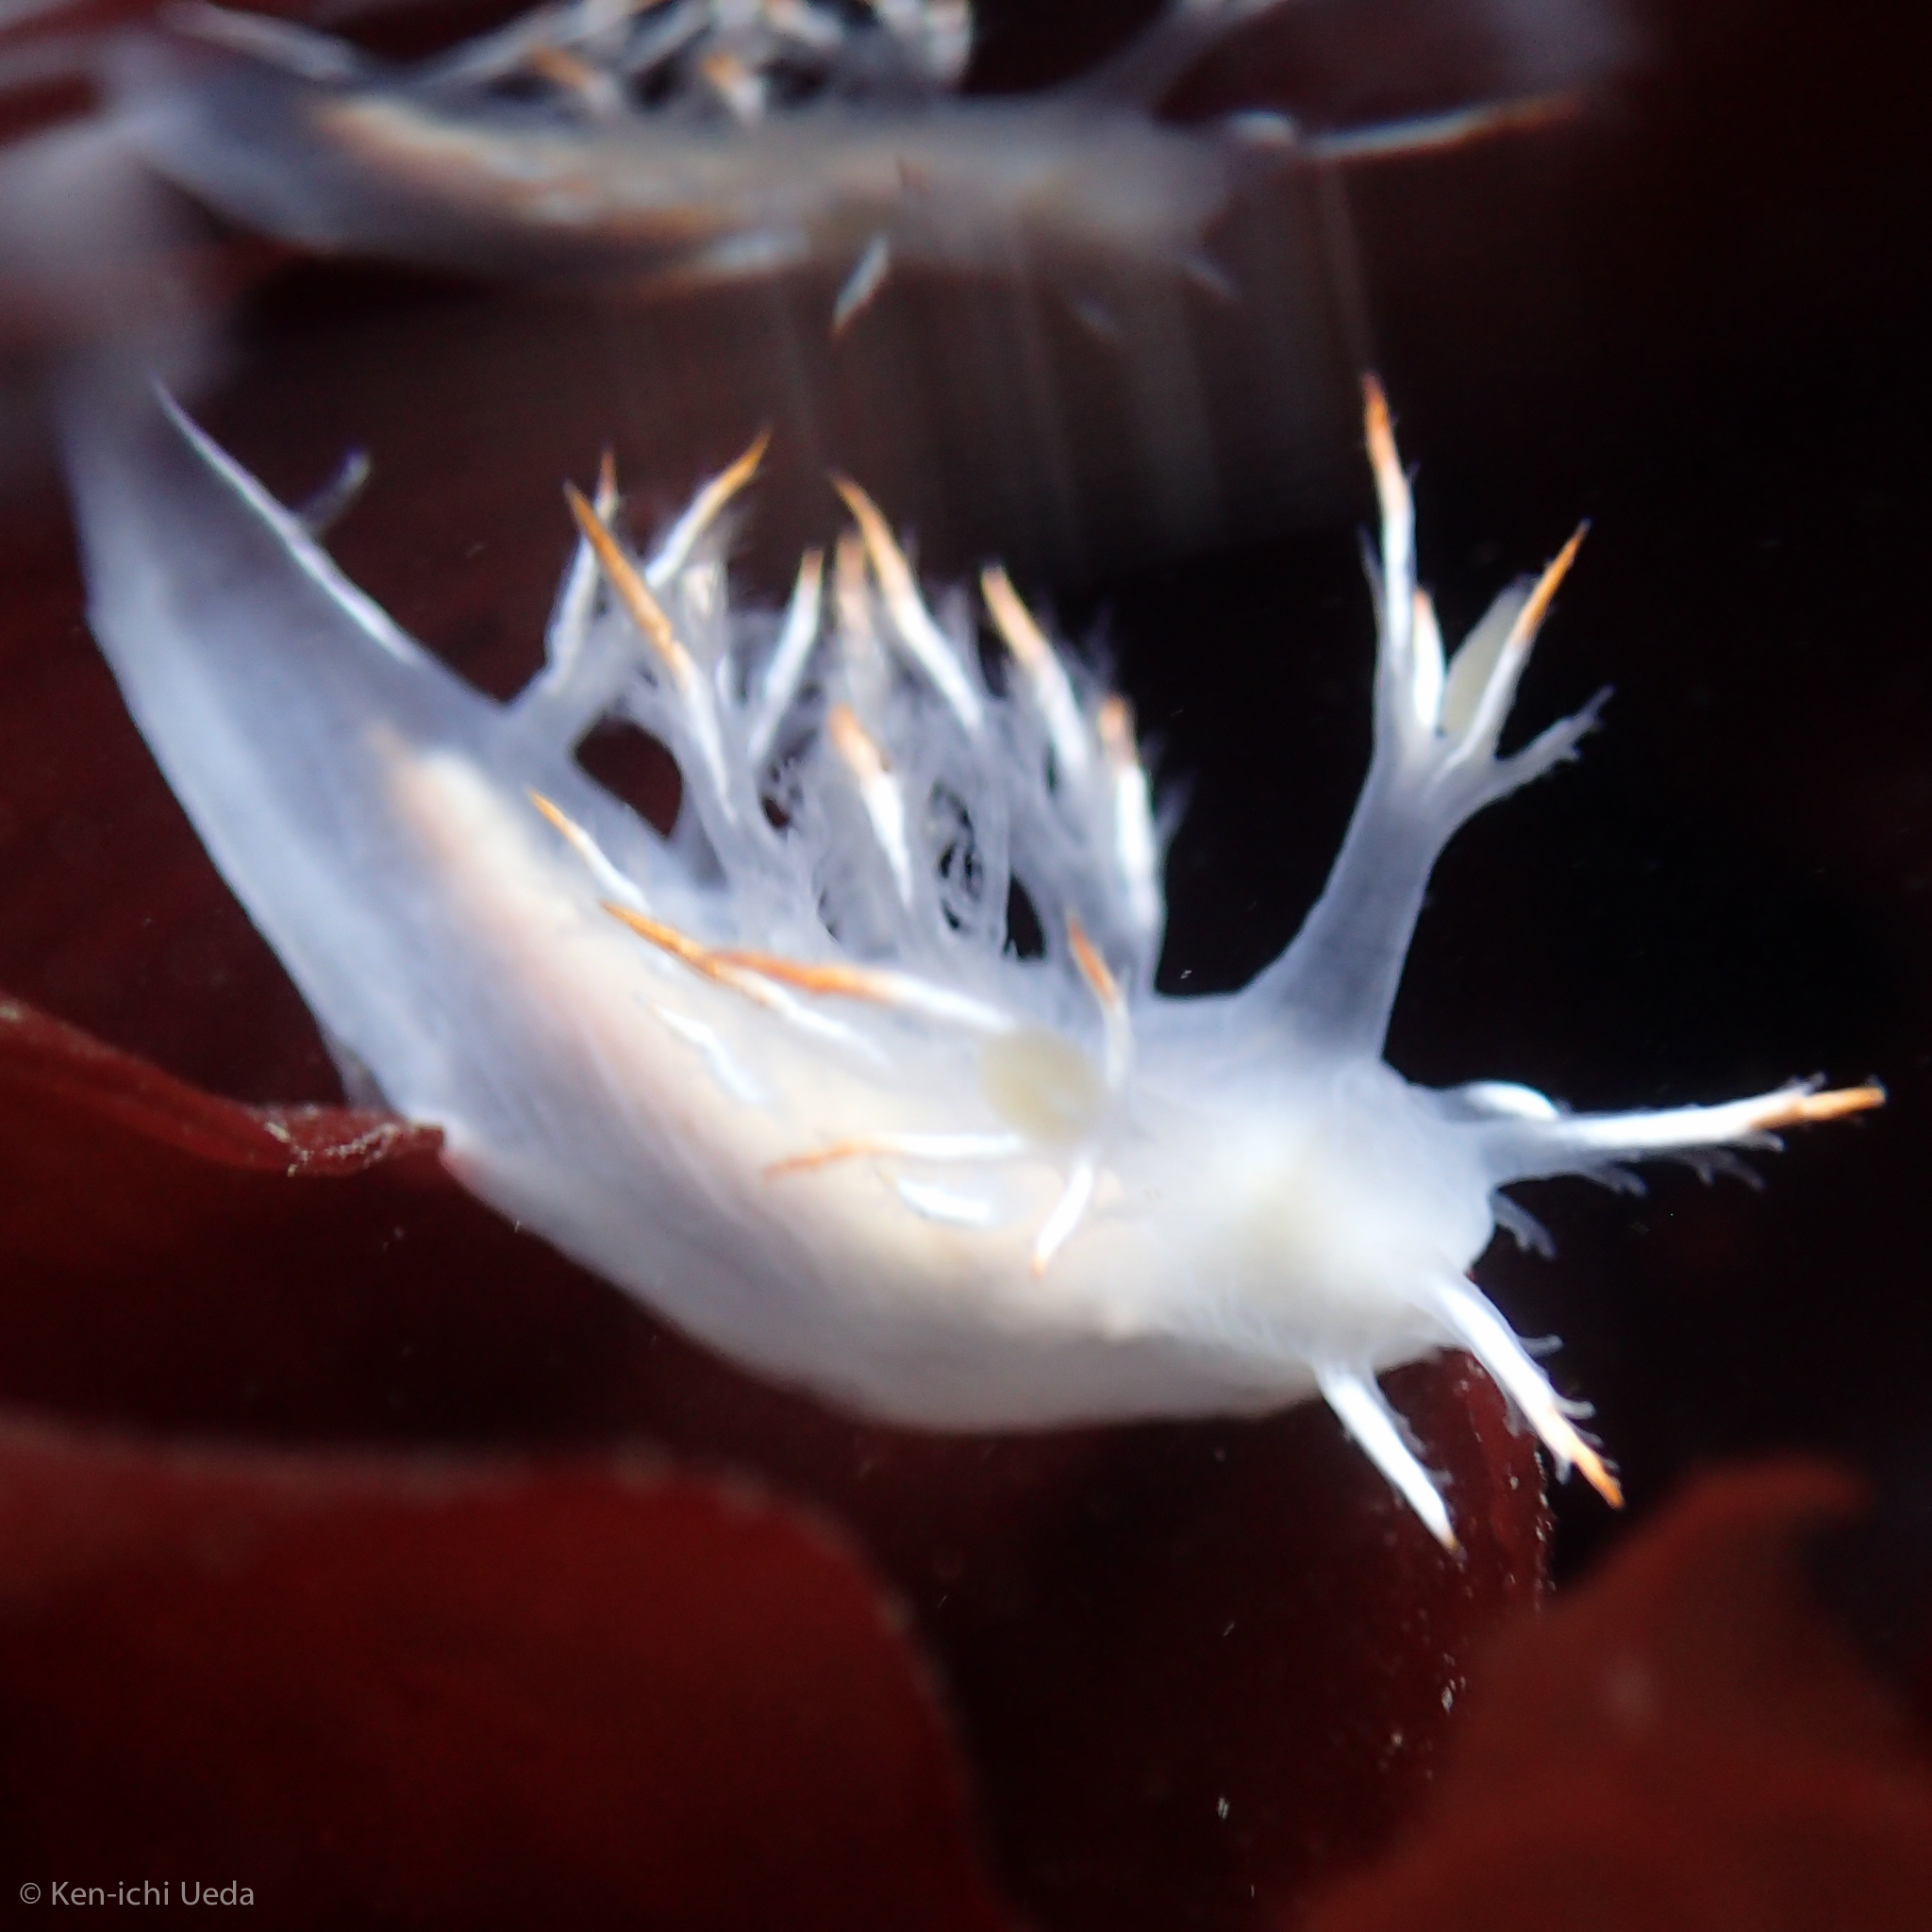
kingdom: Animalia
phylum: Mollusca
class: Gastropoda
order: Nudibranchia
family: Dendronotidae
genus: Dendronotus
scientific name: Dendronotus albus
